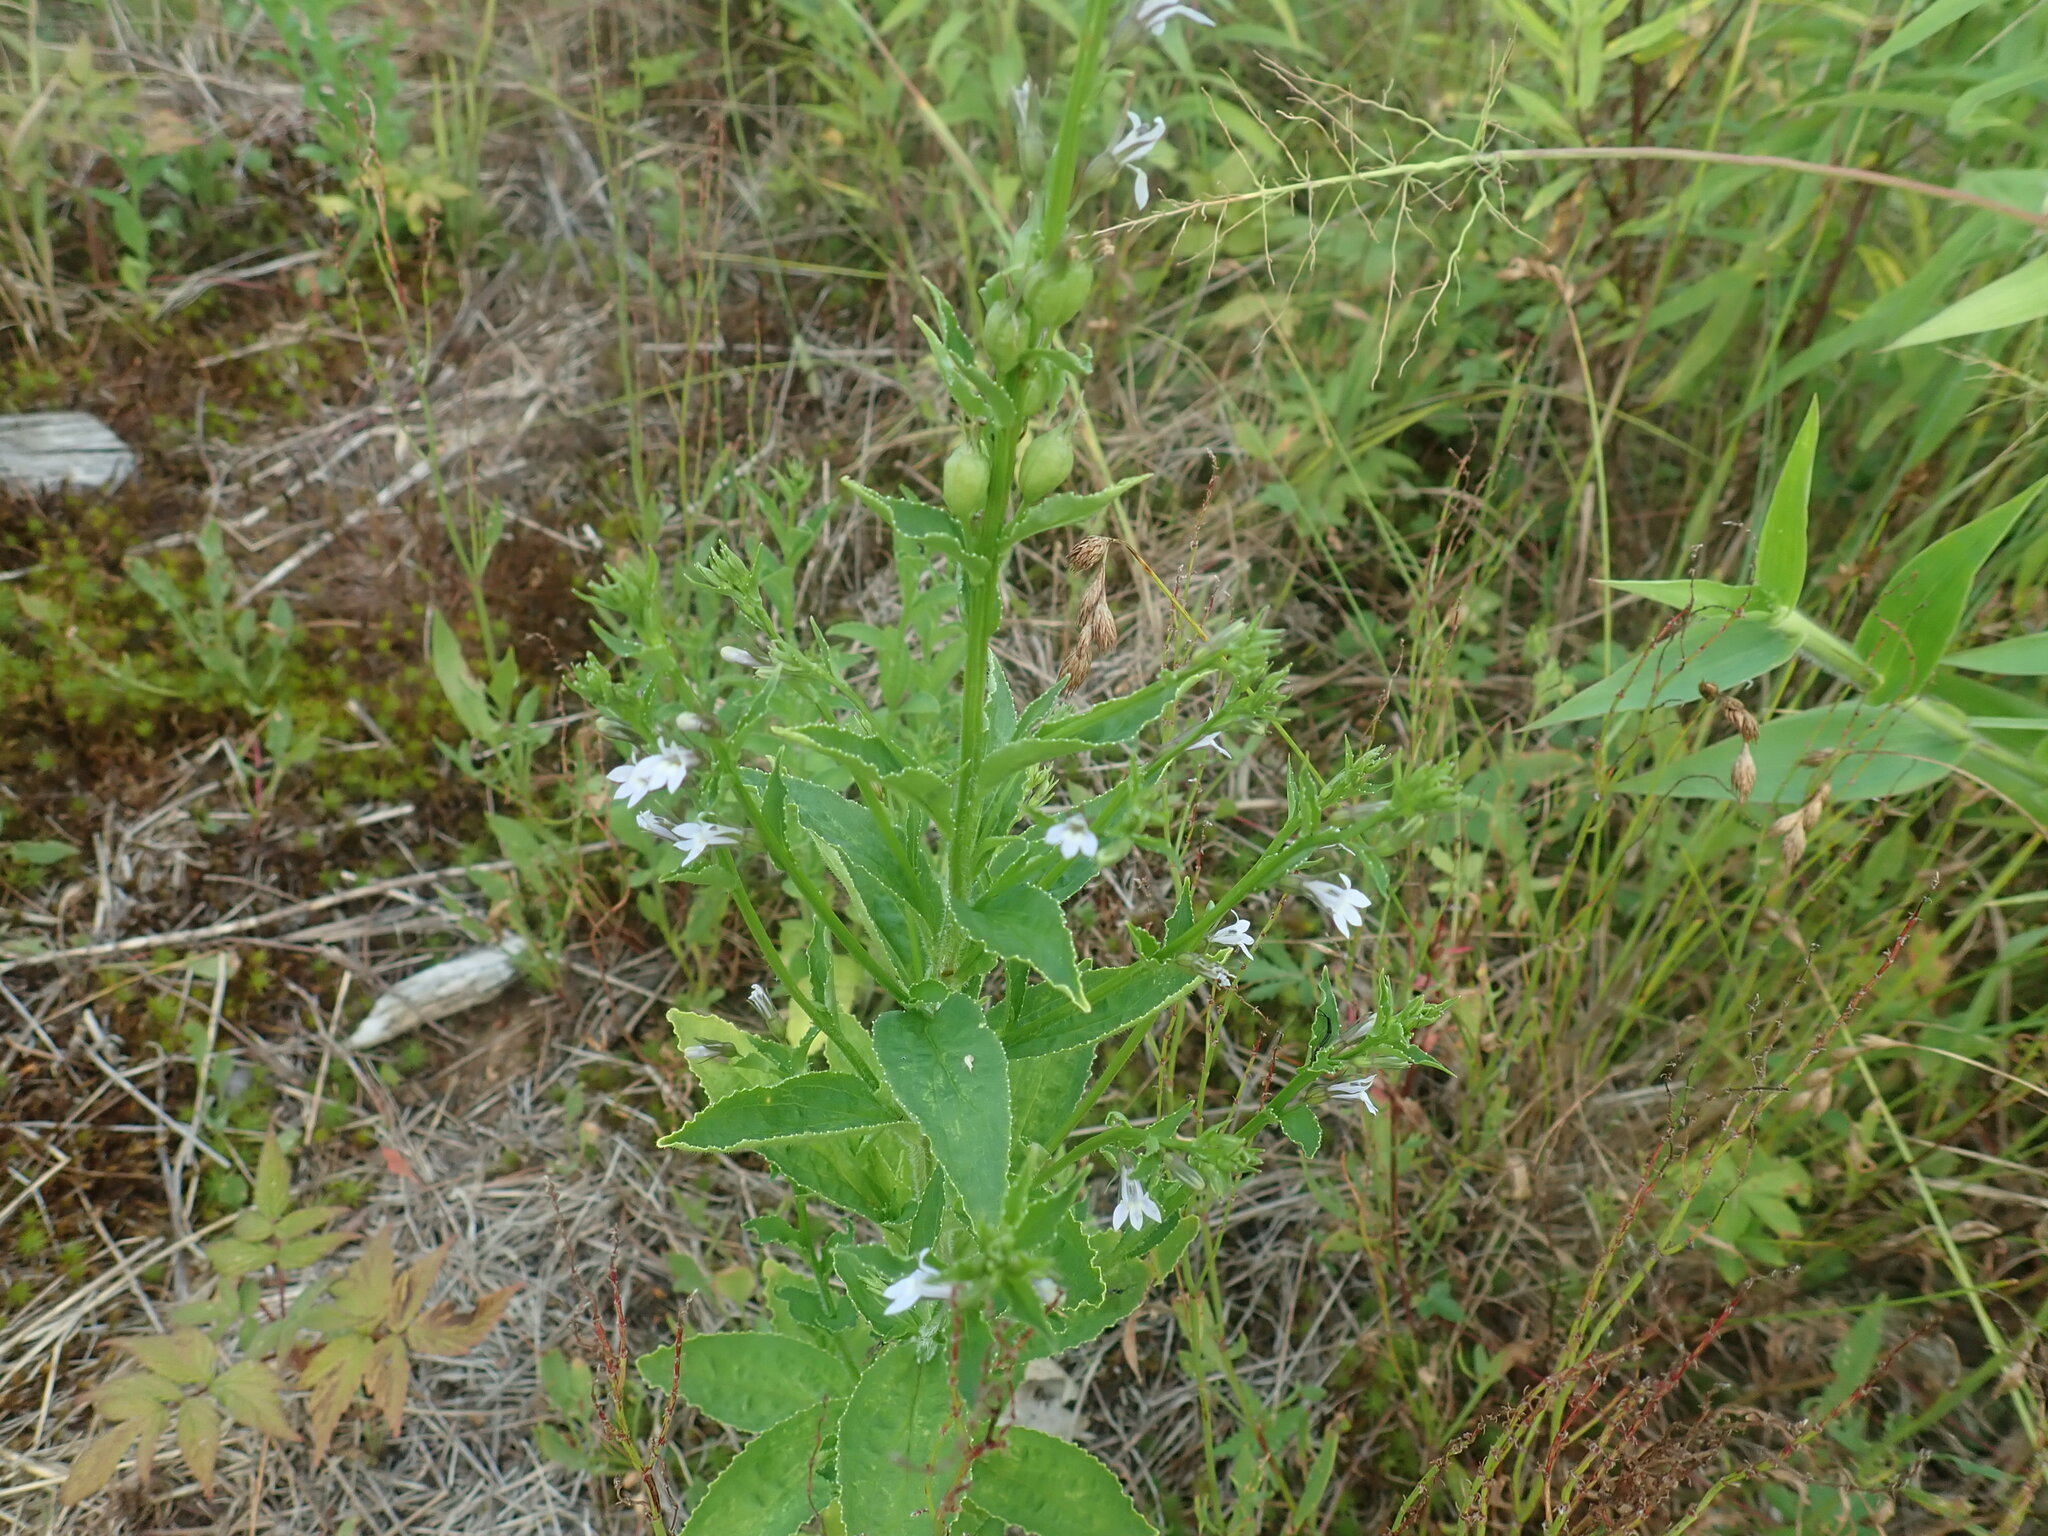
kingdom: Plantae
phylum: Tracheophyta
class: Magnoliopsida
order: Asterales
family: Campanulaceae
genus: Lobelia
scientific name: Lobelia inflata
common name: Indian tobacco
